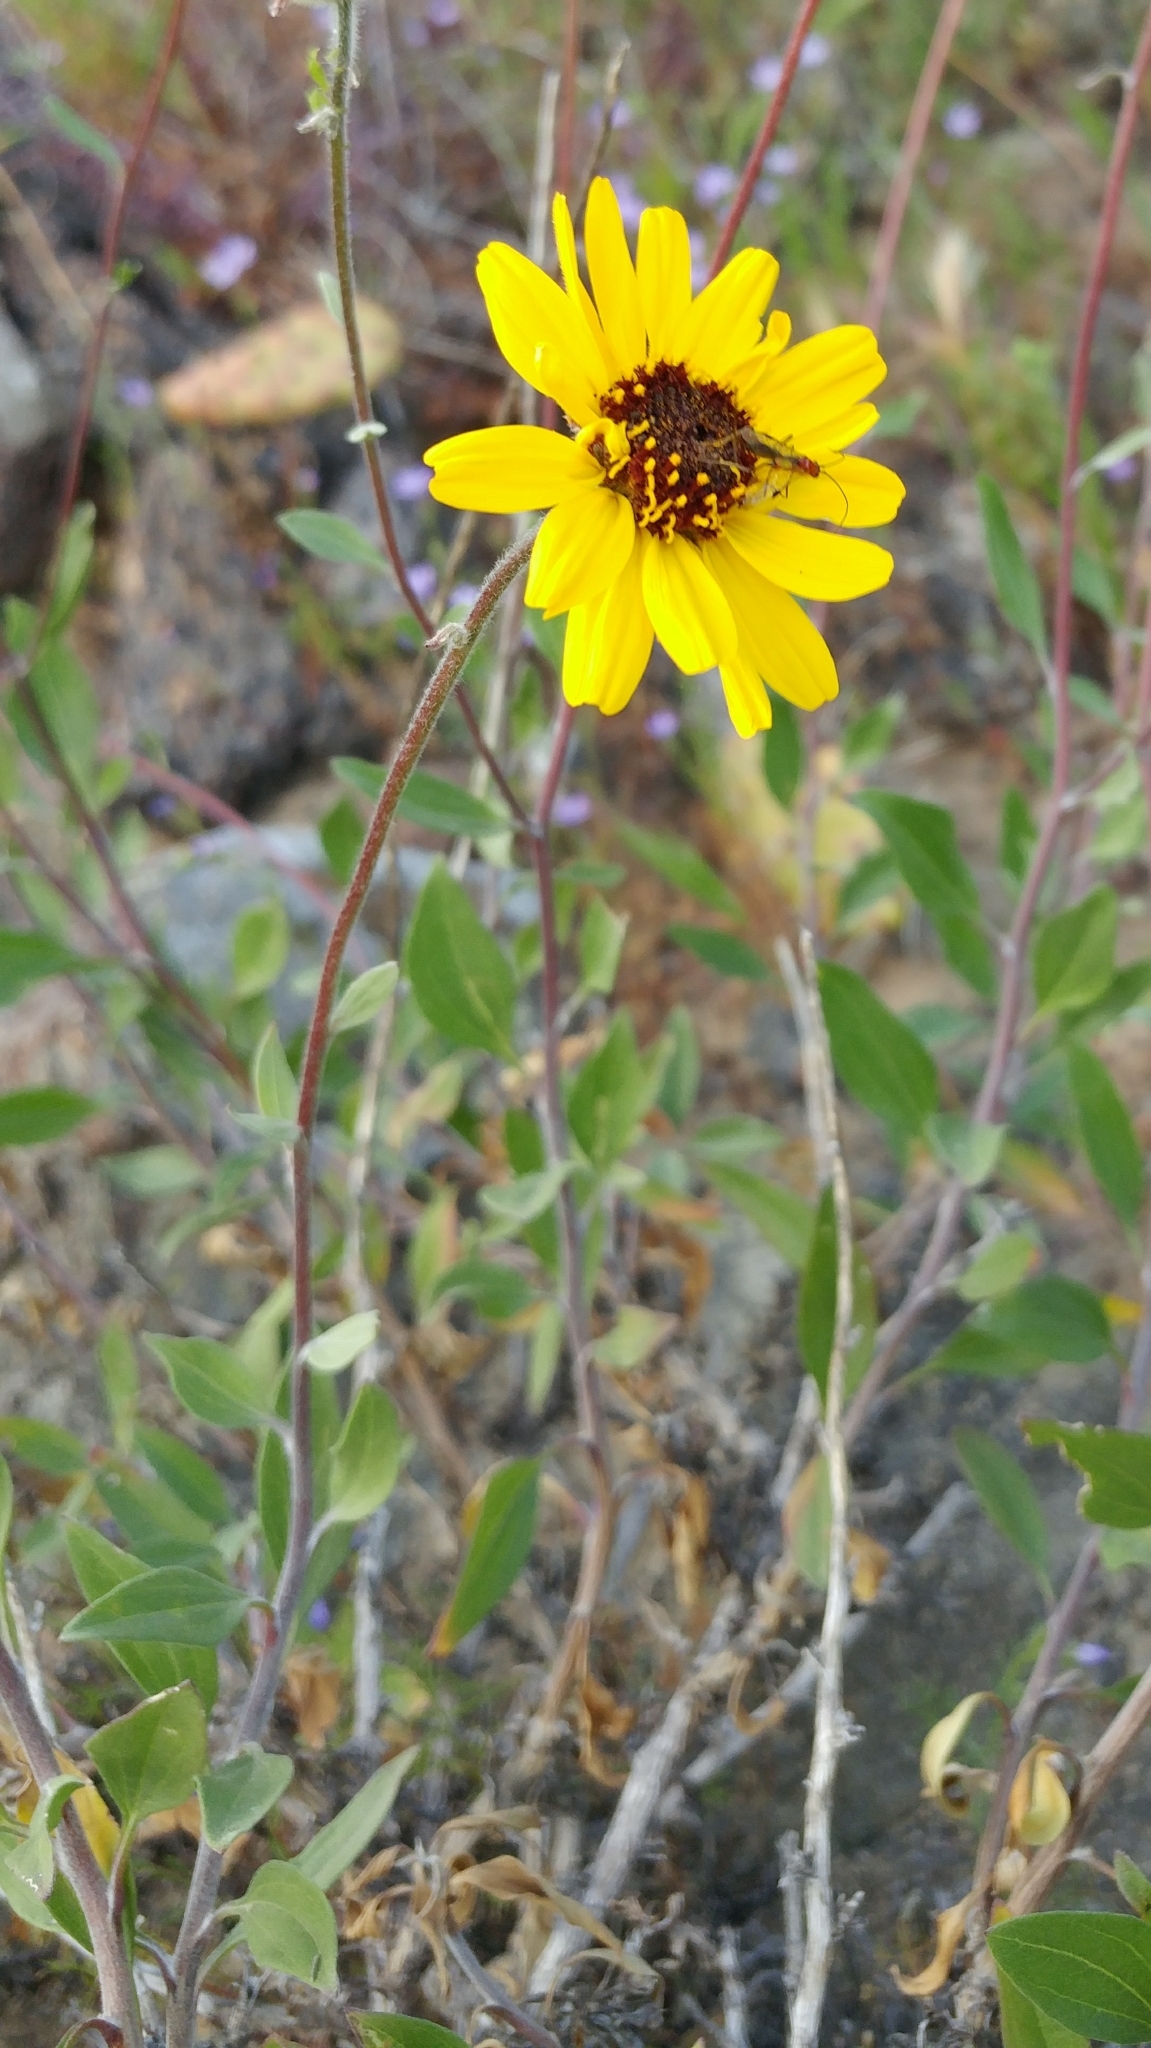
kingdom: Plantae
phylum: Tracheophyta
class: Magnoliopsida
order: Asterales
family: Asteraceae
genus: Encelia
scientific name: Encelia californica
